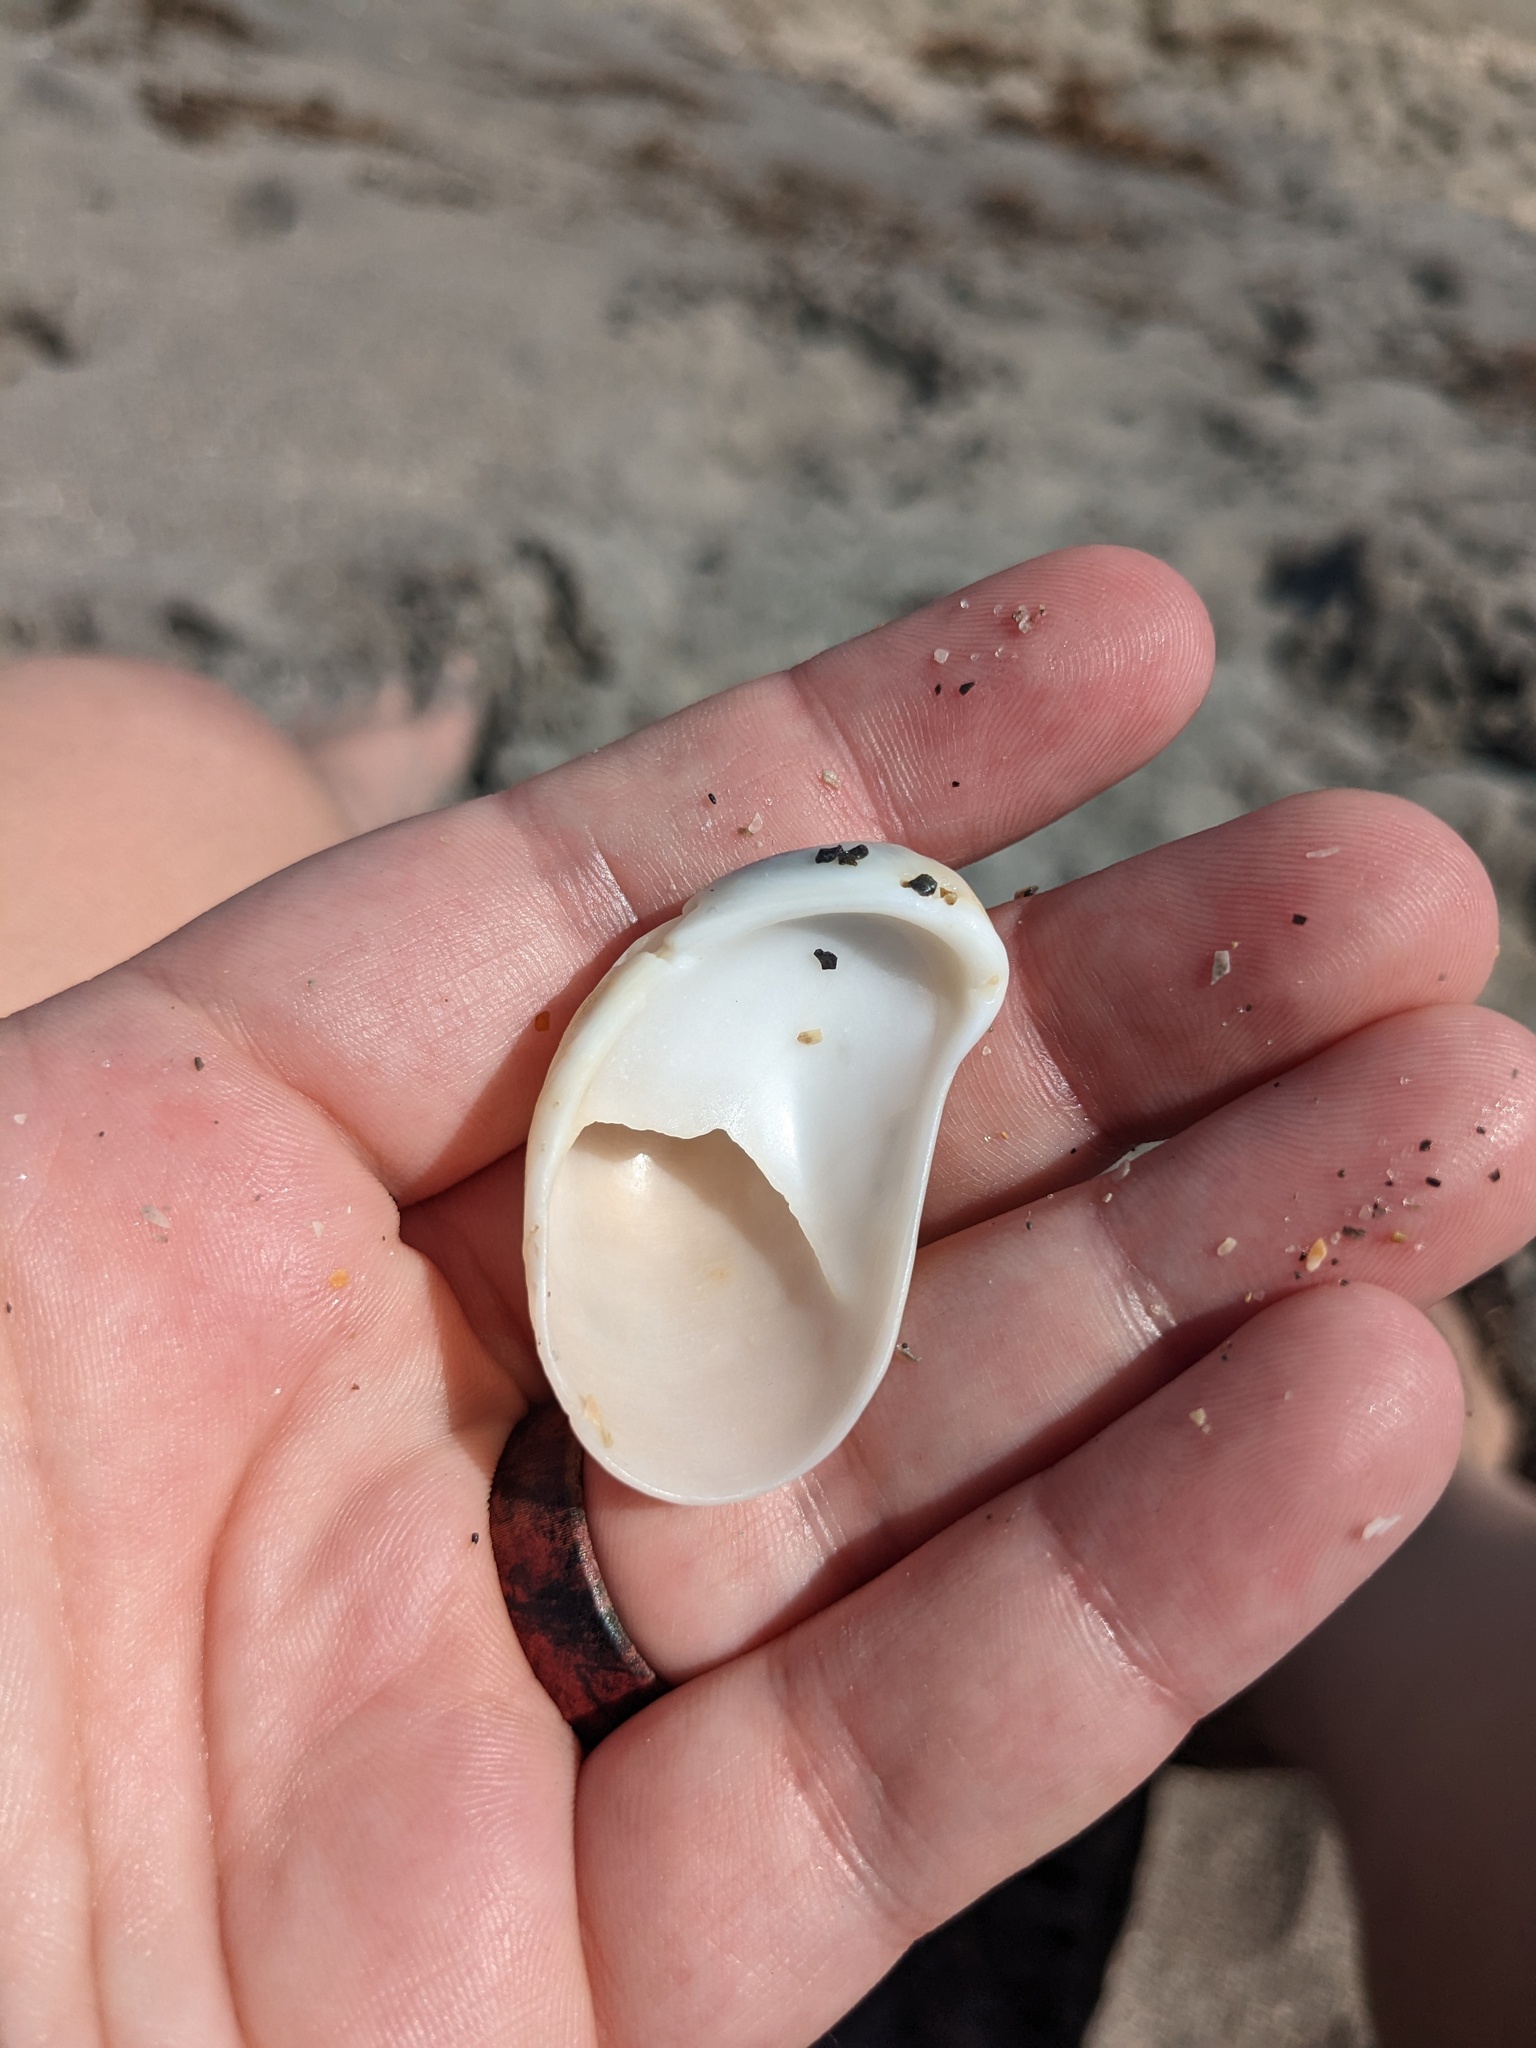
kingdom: Animalia
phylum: Mollusca
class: Gastropoda
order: Littorinimorpha
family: Calyptraeidae
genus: Crepidula
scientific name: Crepidula fornicata
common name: Slipper limpet
